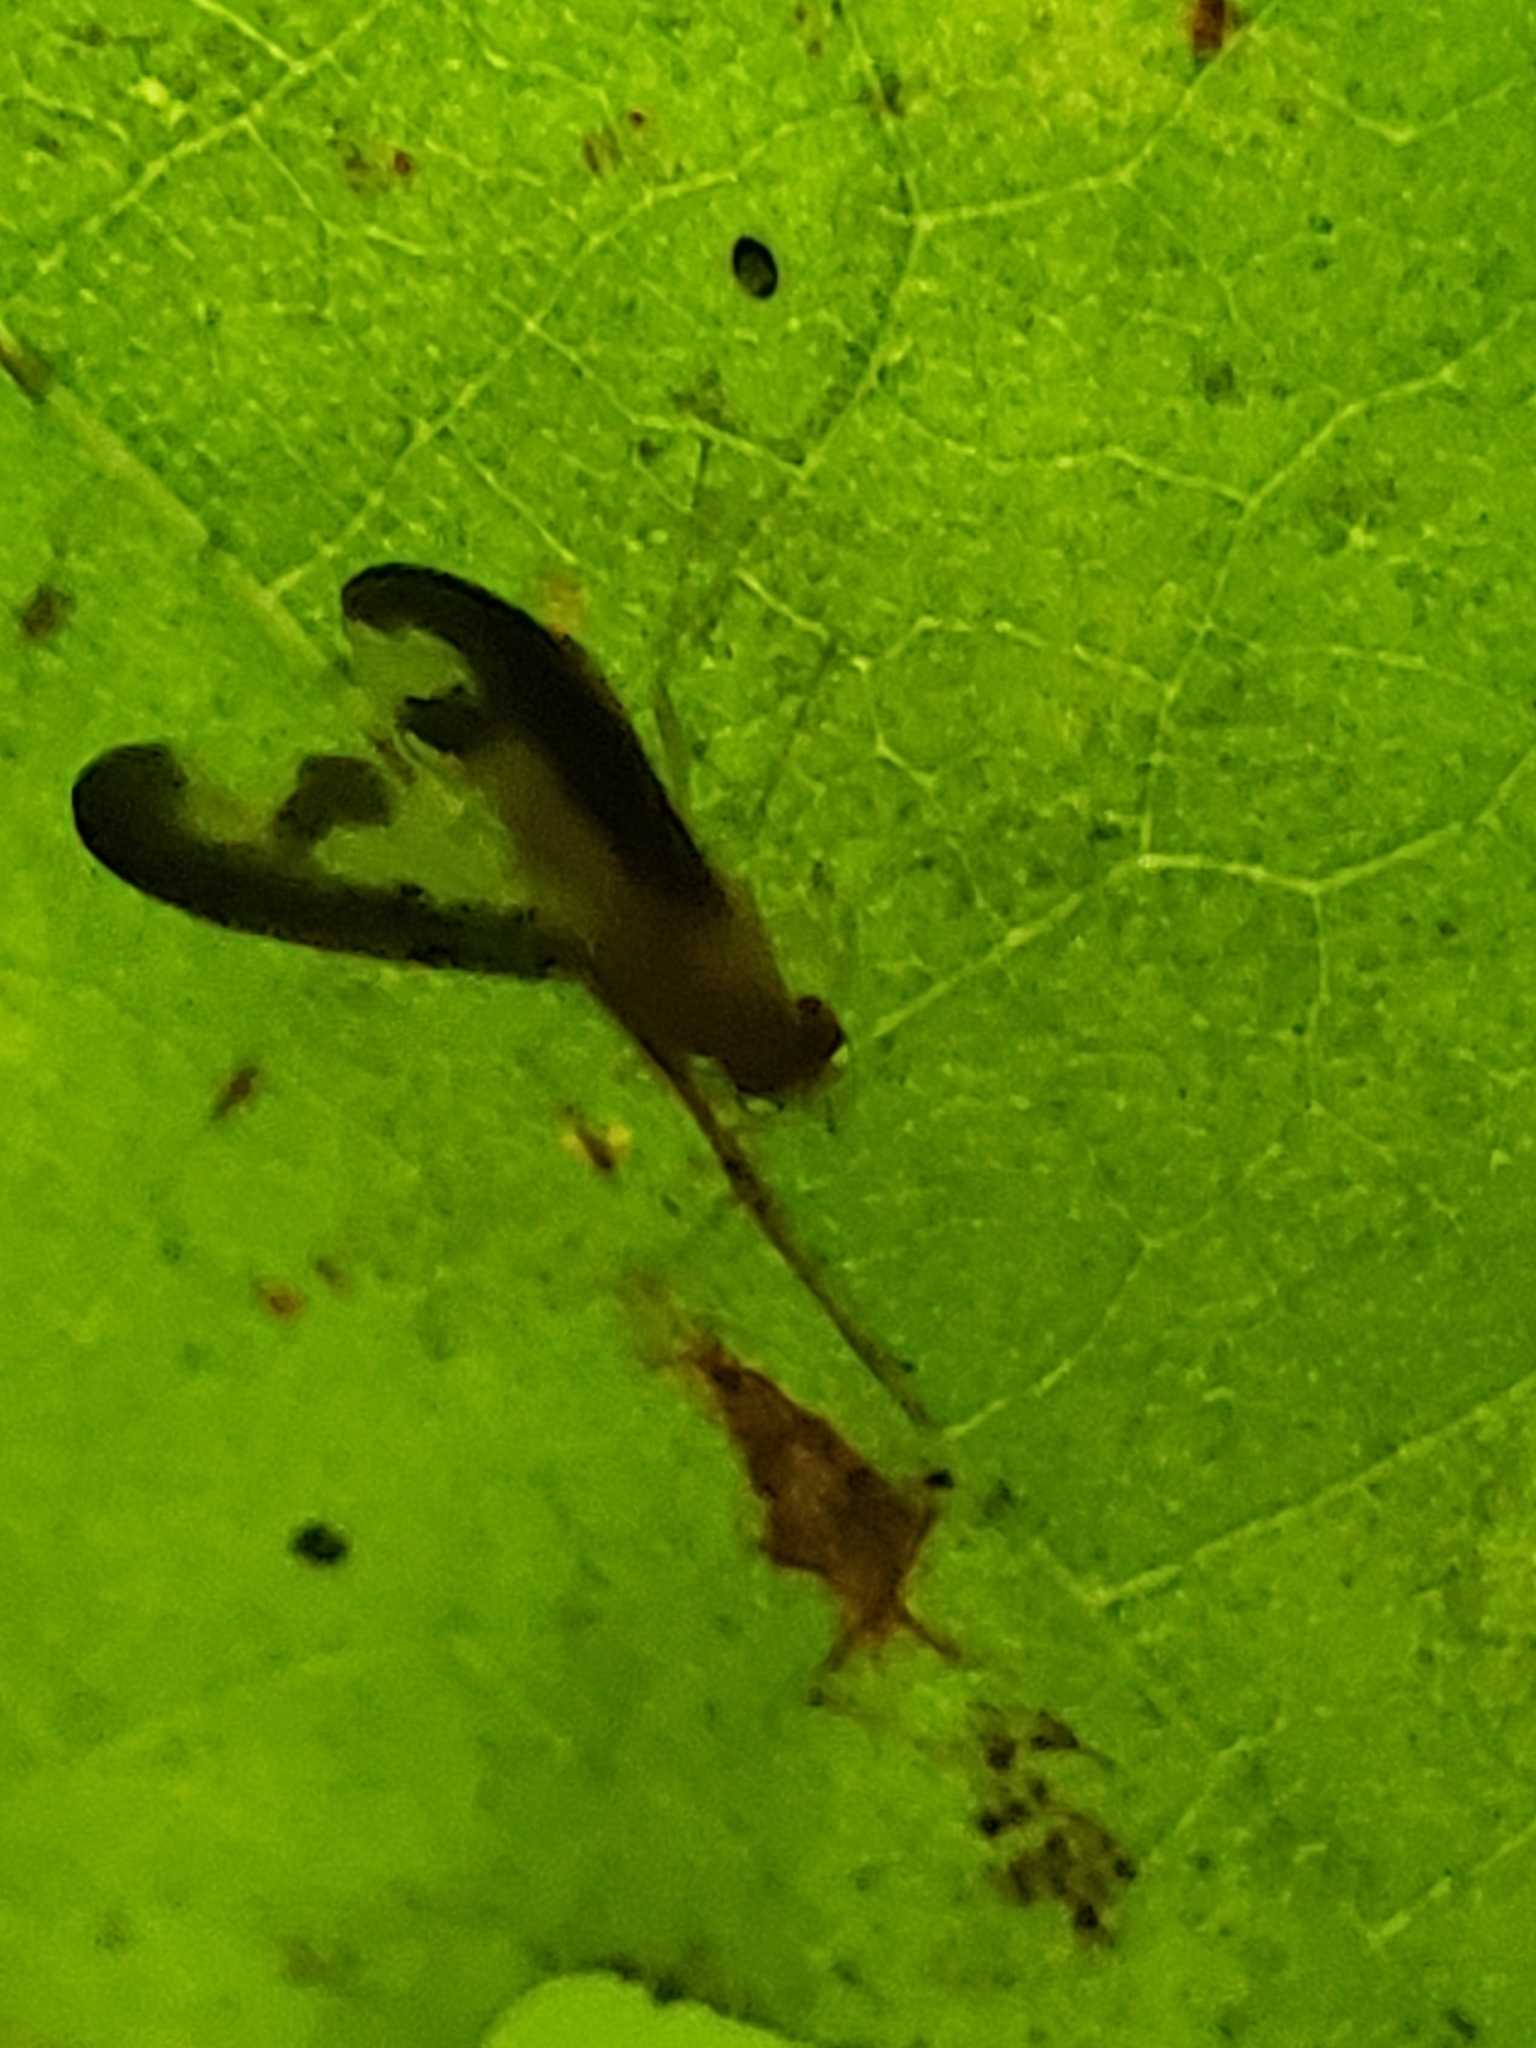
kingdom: Animalia
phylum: Arthropoda
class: Insecta
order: Diptera
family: Pallopteridae
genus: Toxonevra
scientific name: Toxonevra superba
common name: Antlered flutter fly
